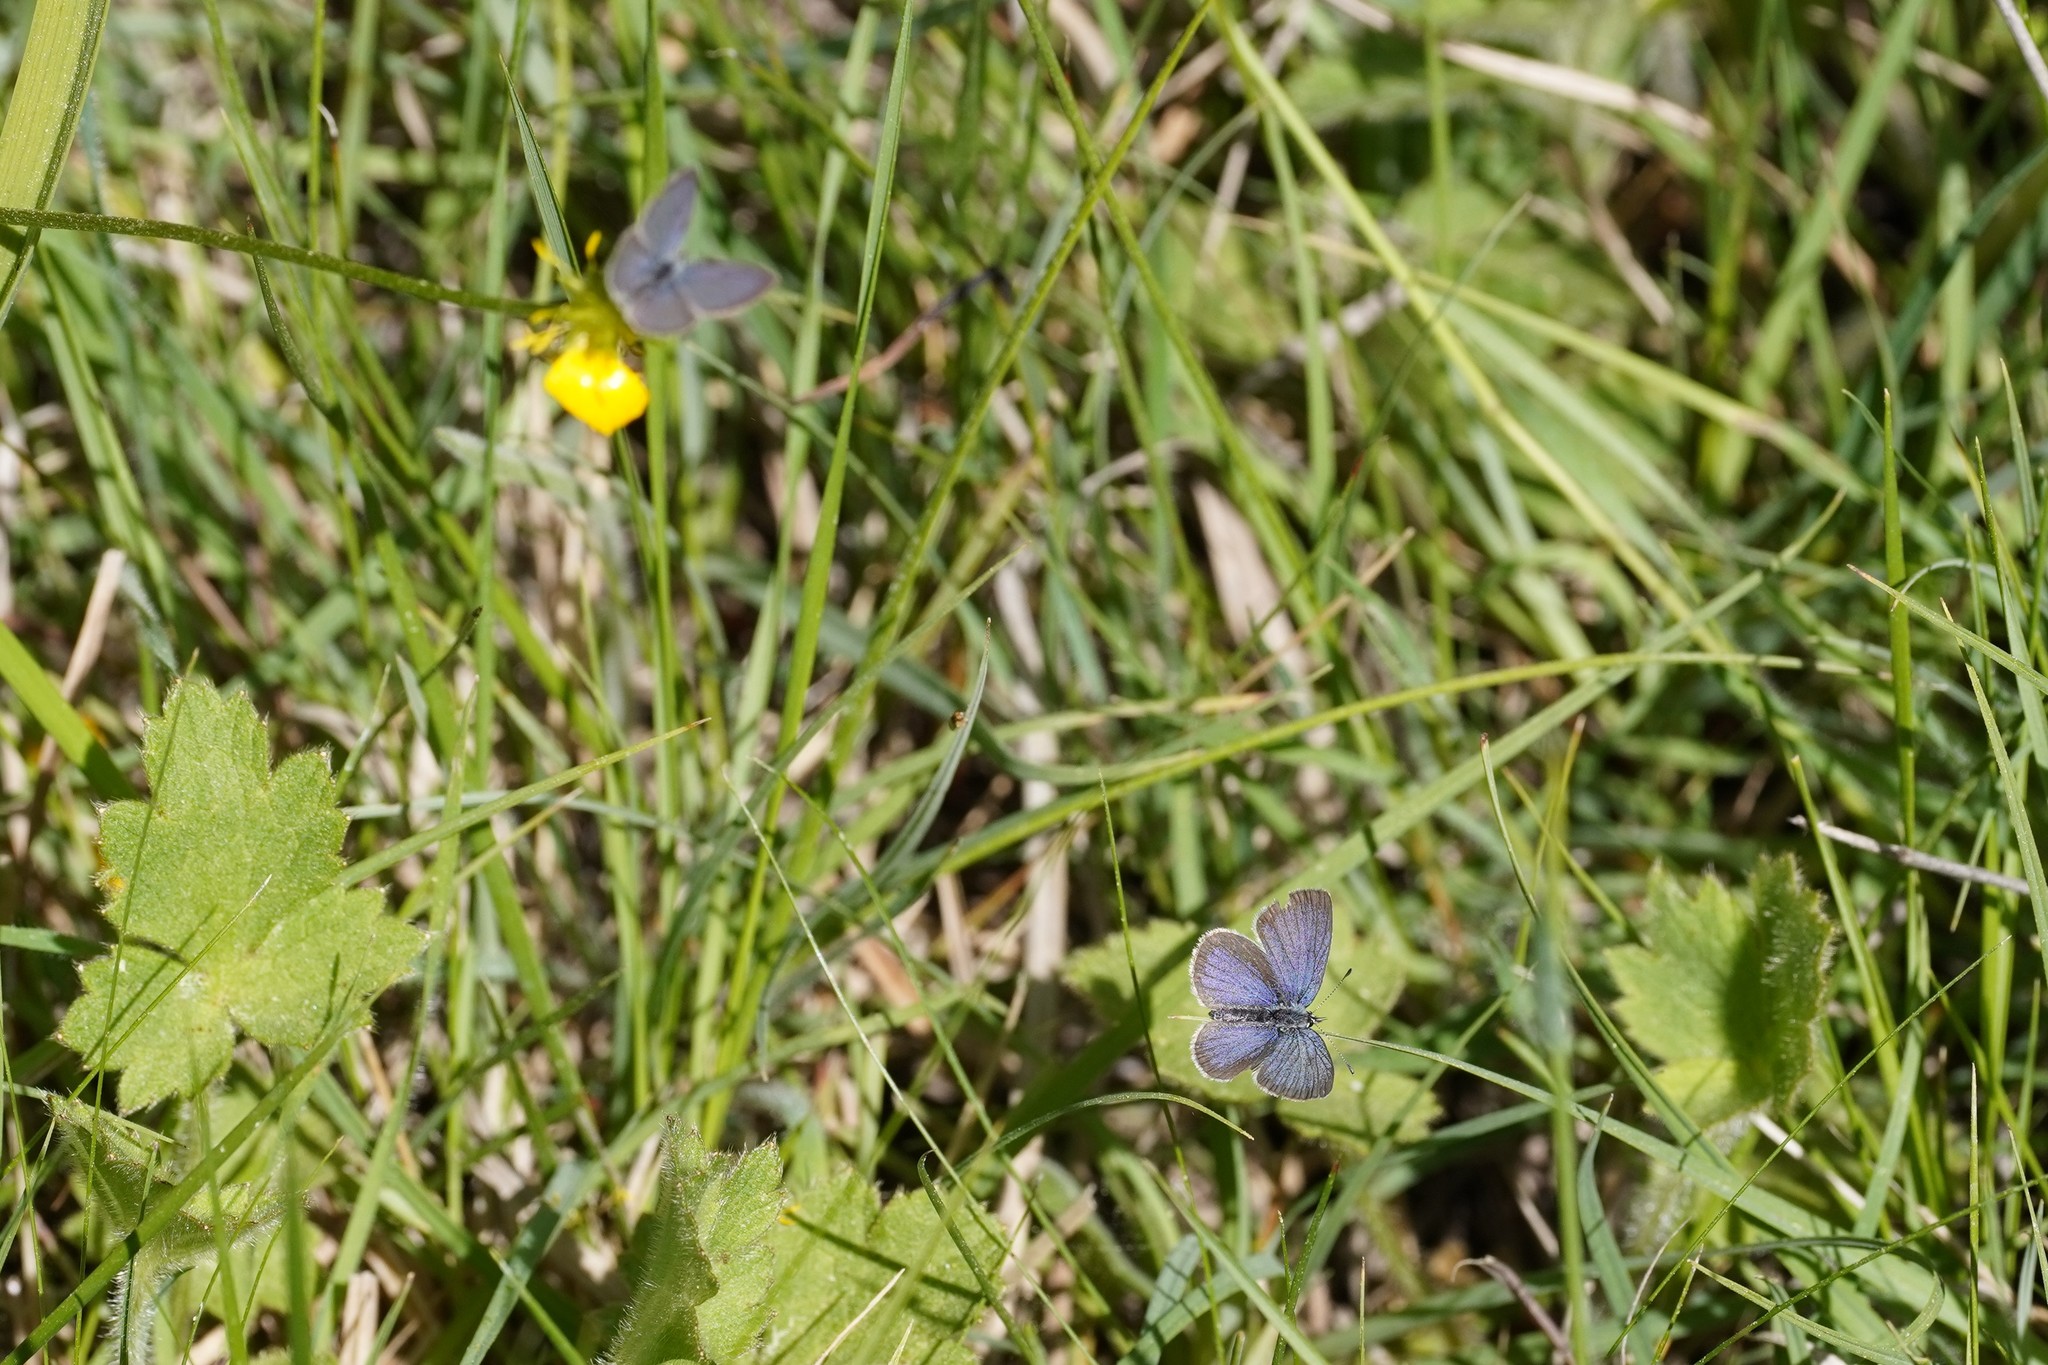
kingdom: Animalia
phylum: Arthropoda
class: Insecta
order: Lepidoptera
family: Lycaenidae
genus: Cupido
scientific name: Cupido lorquinii
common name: Lorquin’s blue
